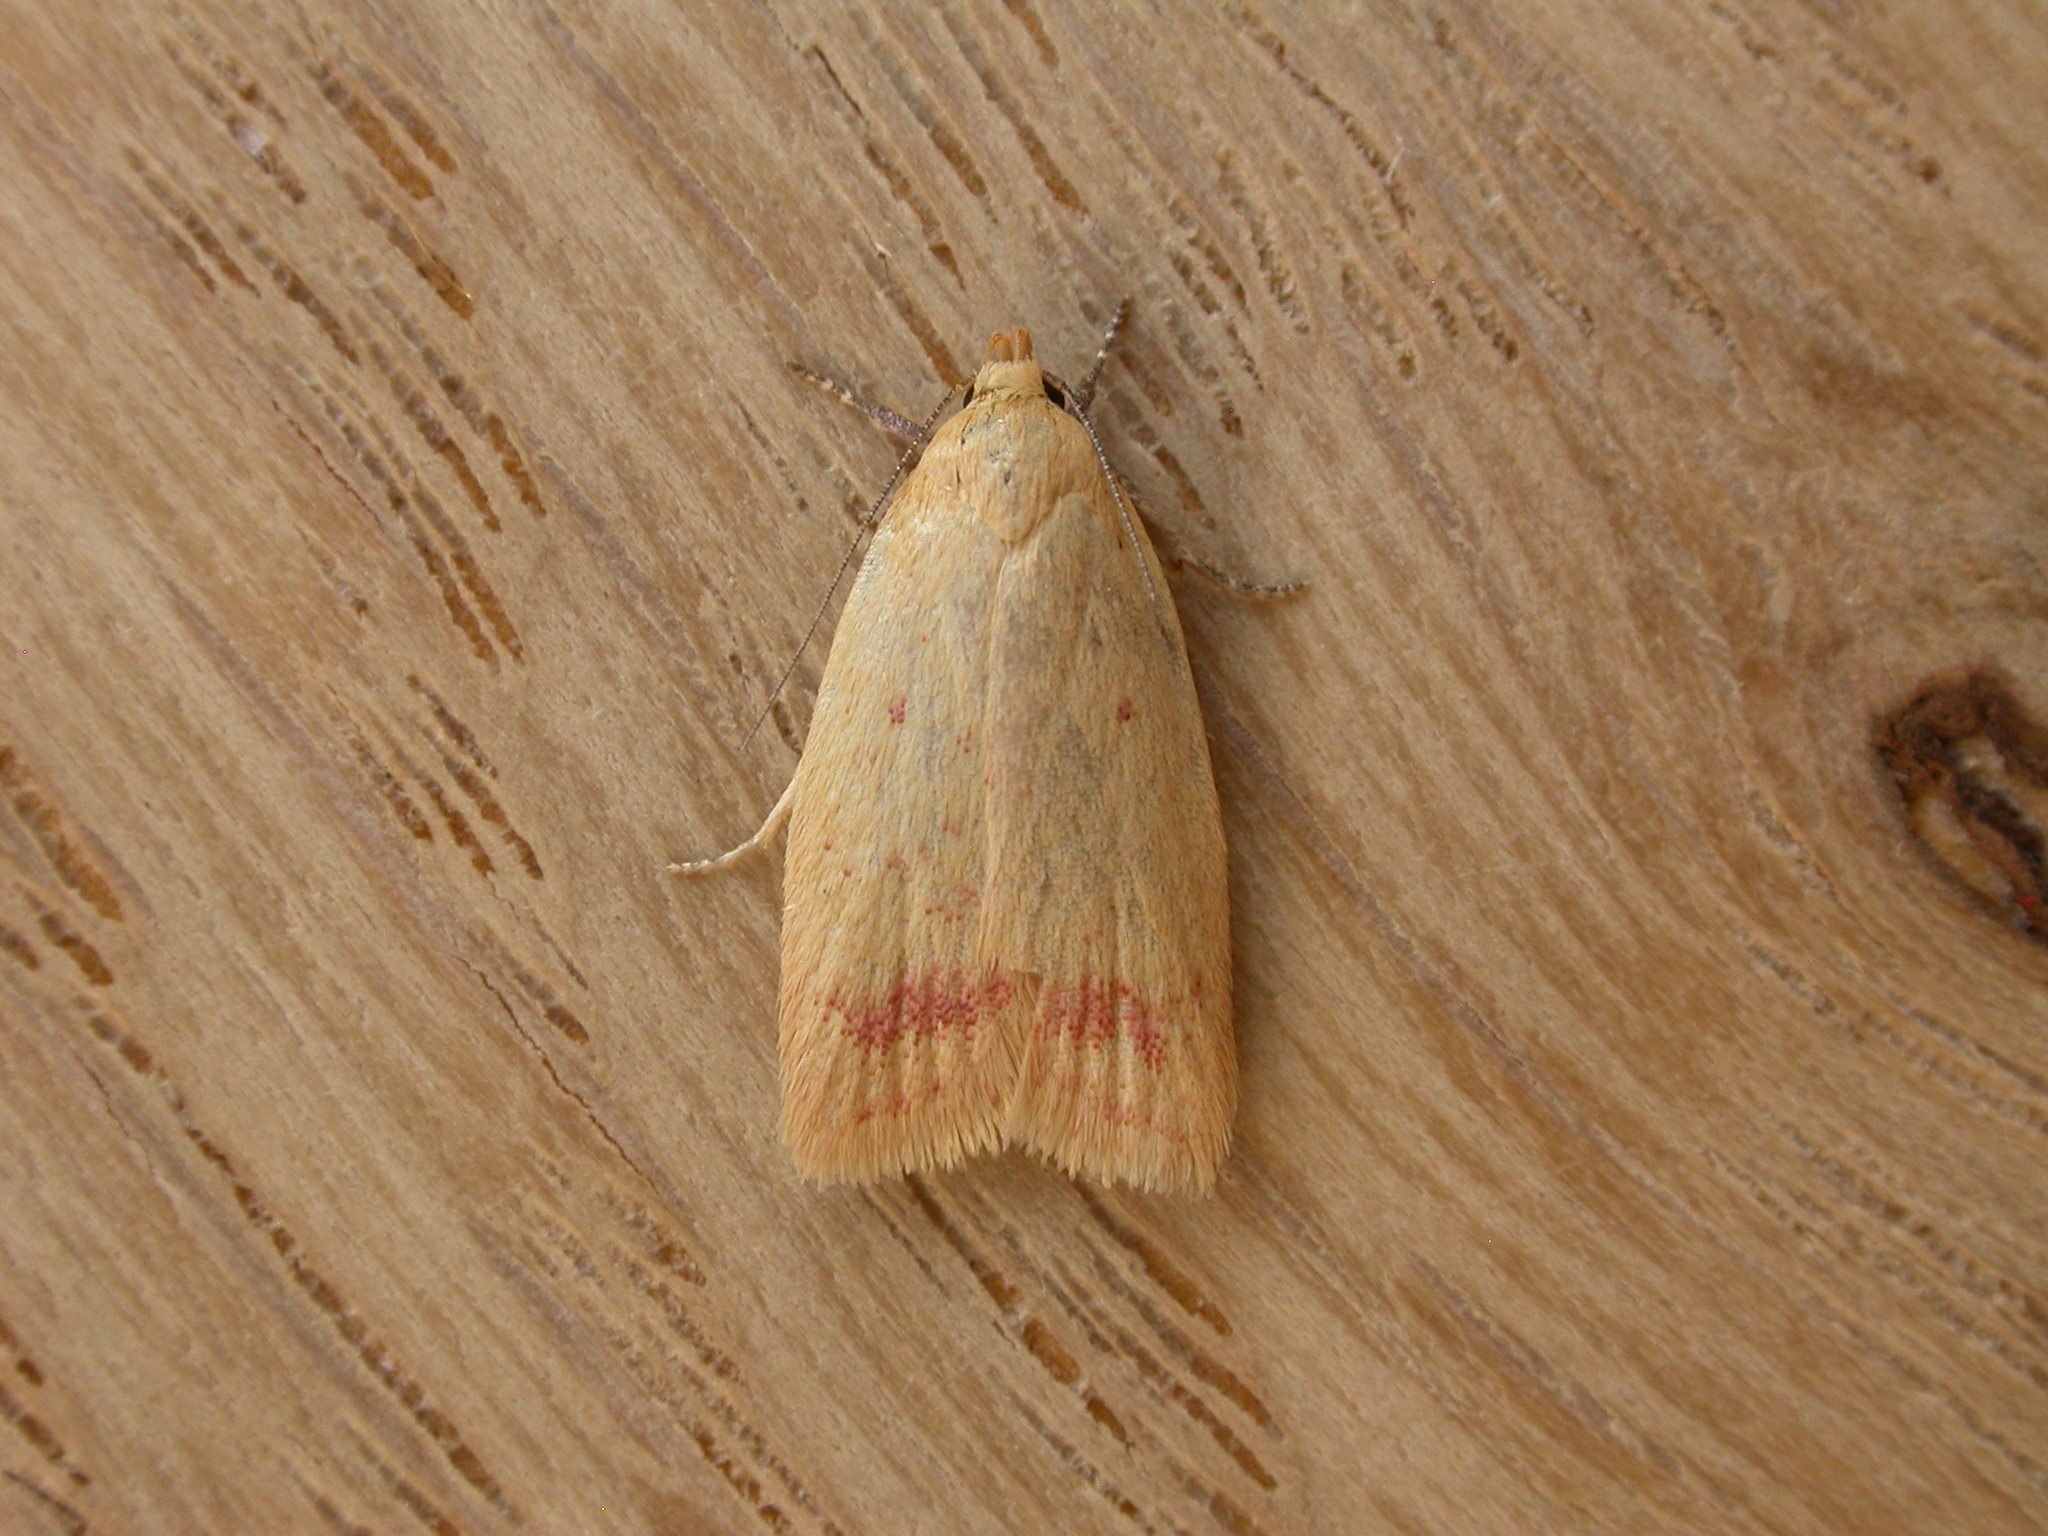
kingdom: Animalia
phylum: Arthropoda
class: Insecta
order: Lepidoptera
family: Oecophoridae
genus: Heteroteucha
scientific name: Heteroteucha occidua
